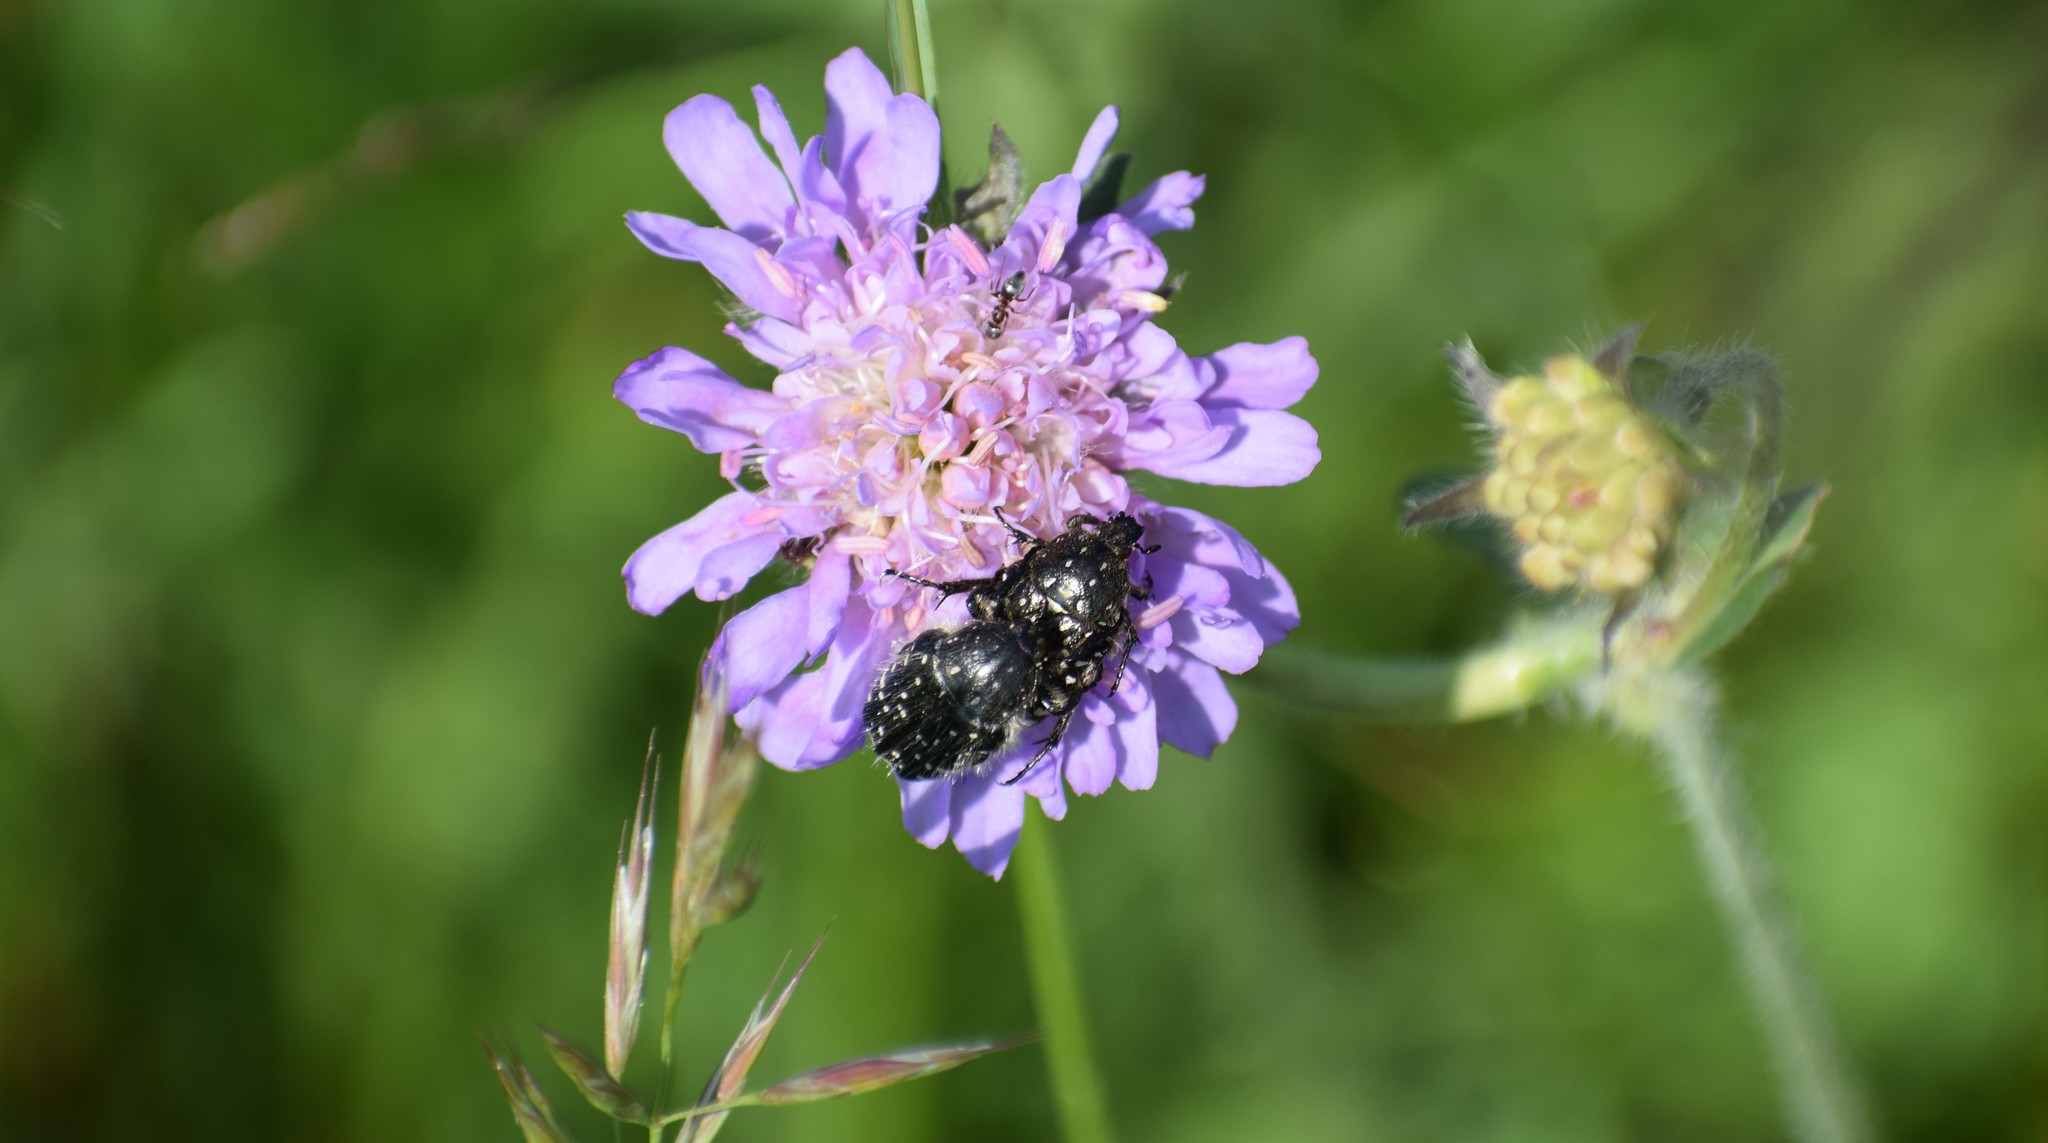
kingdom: Animalia
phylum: Arthropoda
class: Insecta
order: Coleoptera
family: Scarabaeidae
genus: Oxythyrea
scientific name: Oxythyrea funesta
